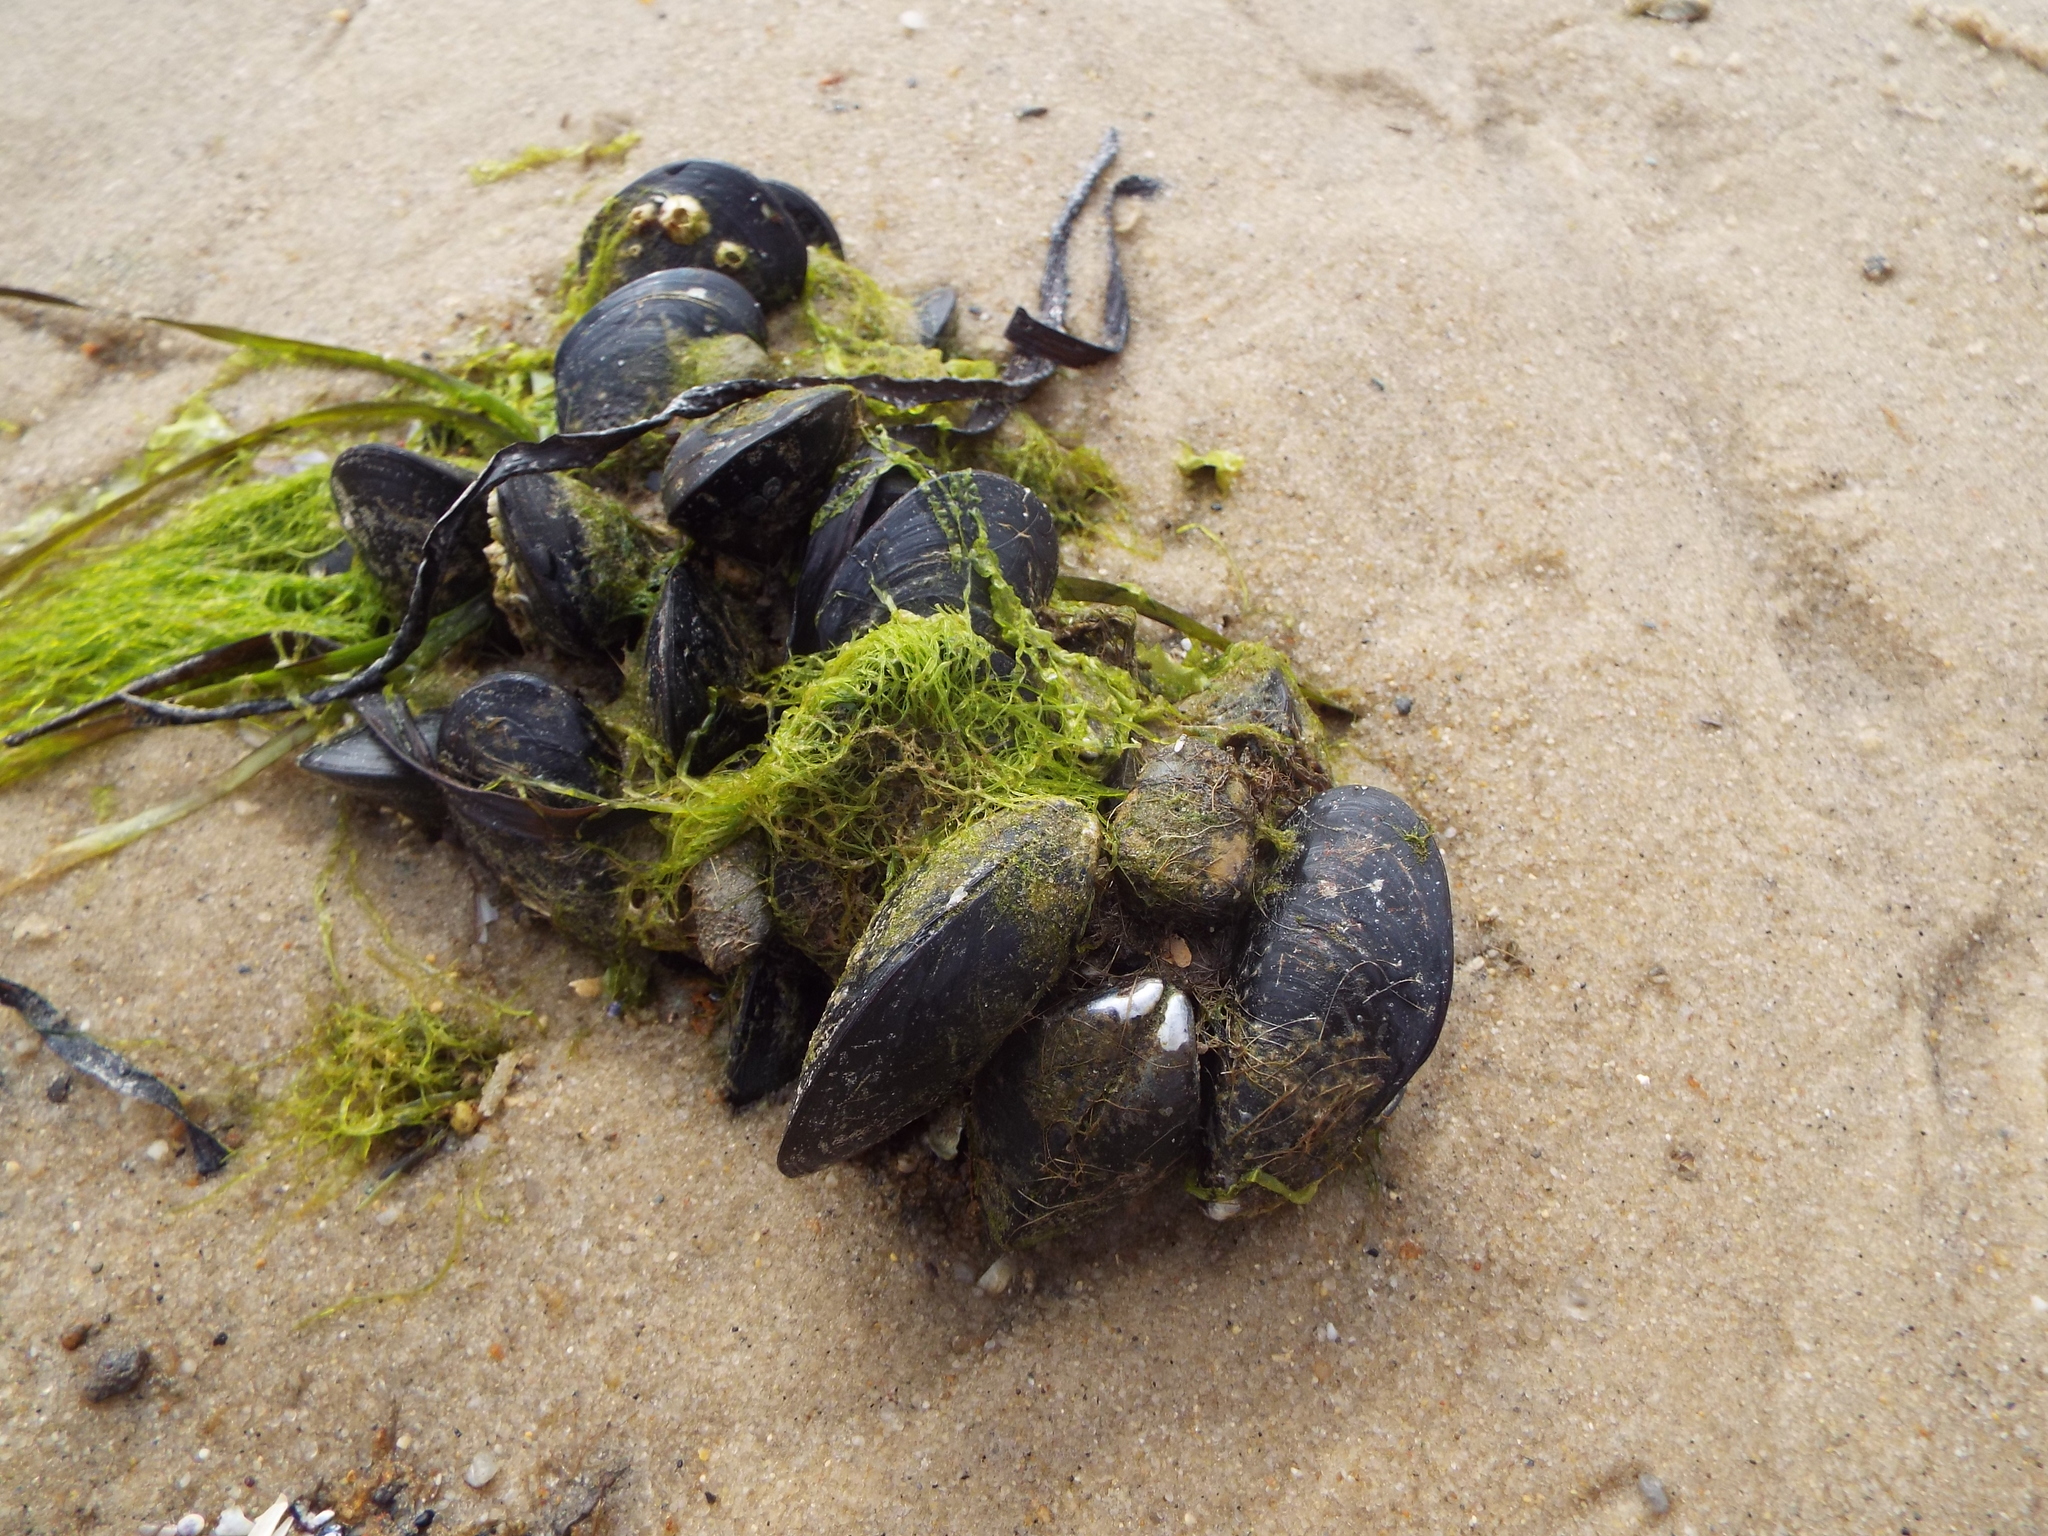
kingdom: Animalia
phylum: Mollusca
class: Bivalvia
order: Mytilida
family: Mytilidae
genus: Mytilus
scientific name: Mytilus edulis
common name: Blue mussel
